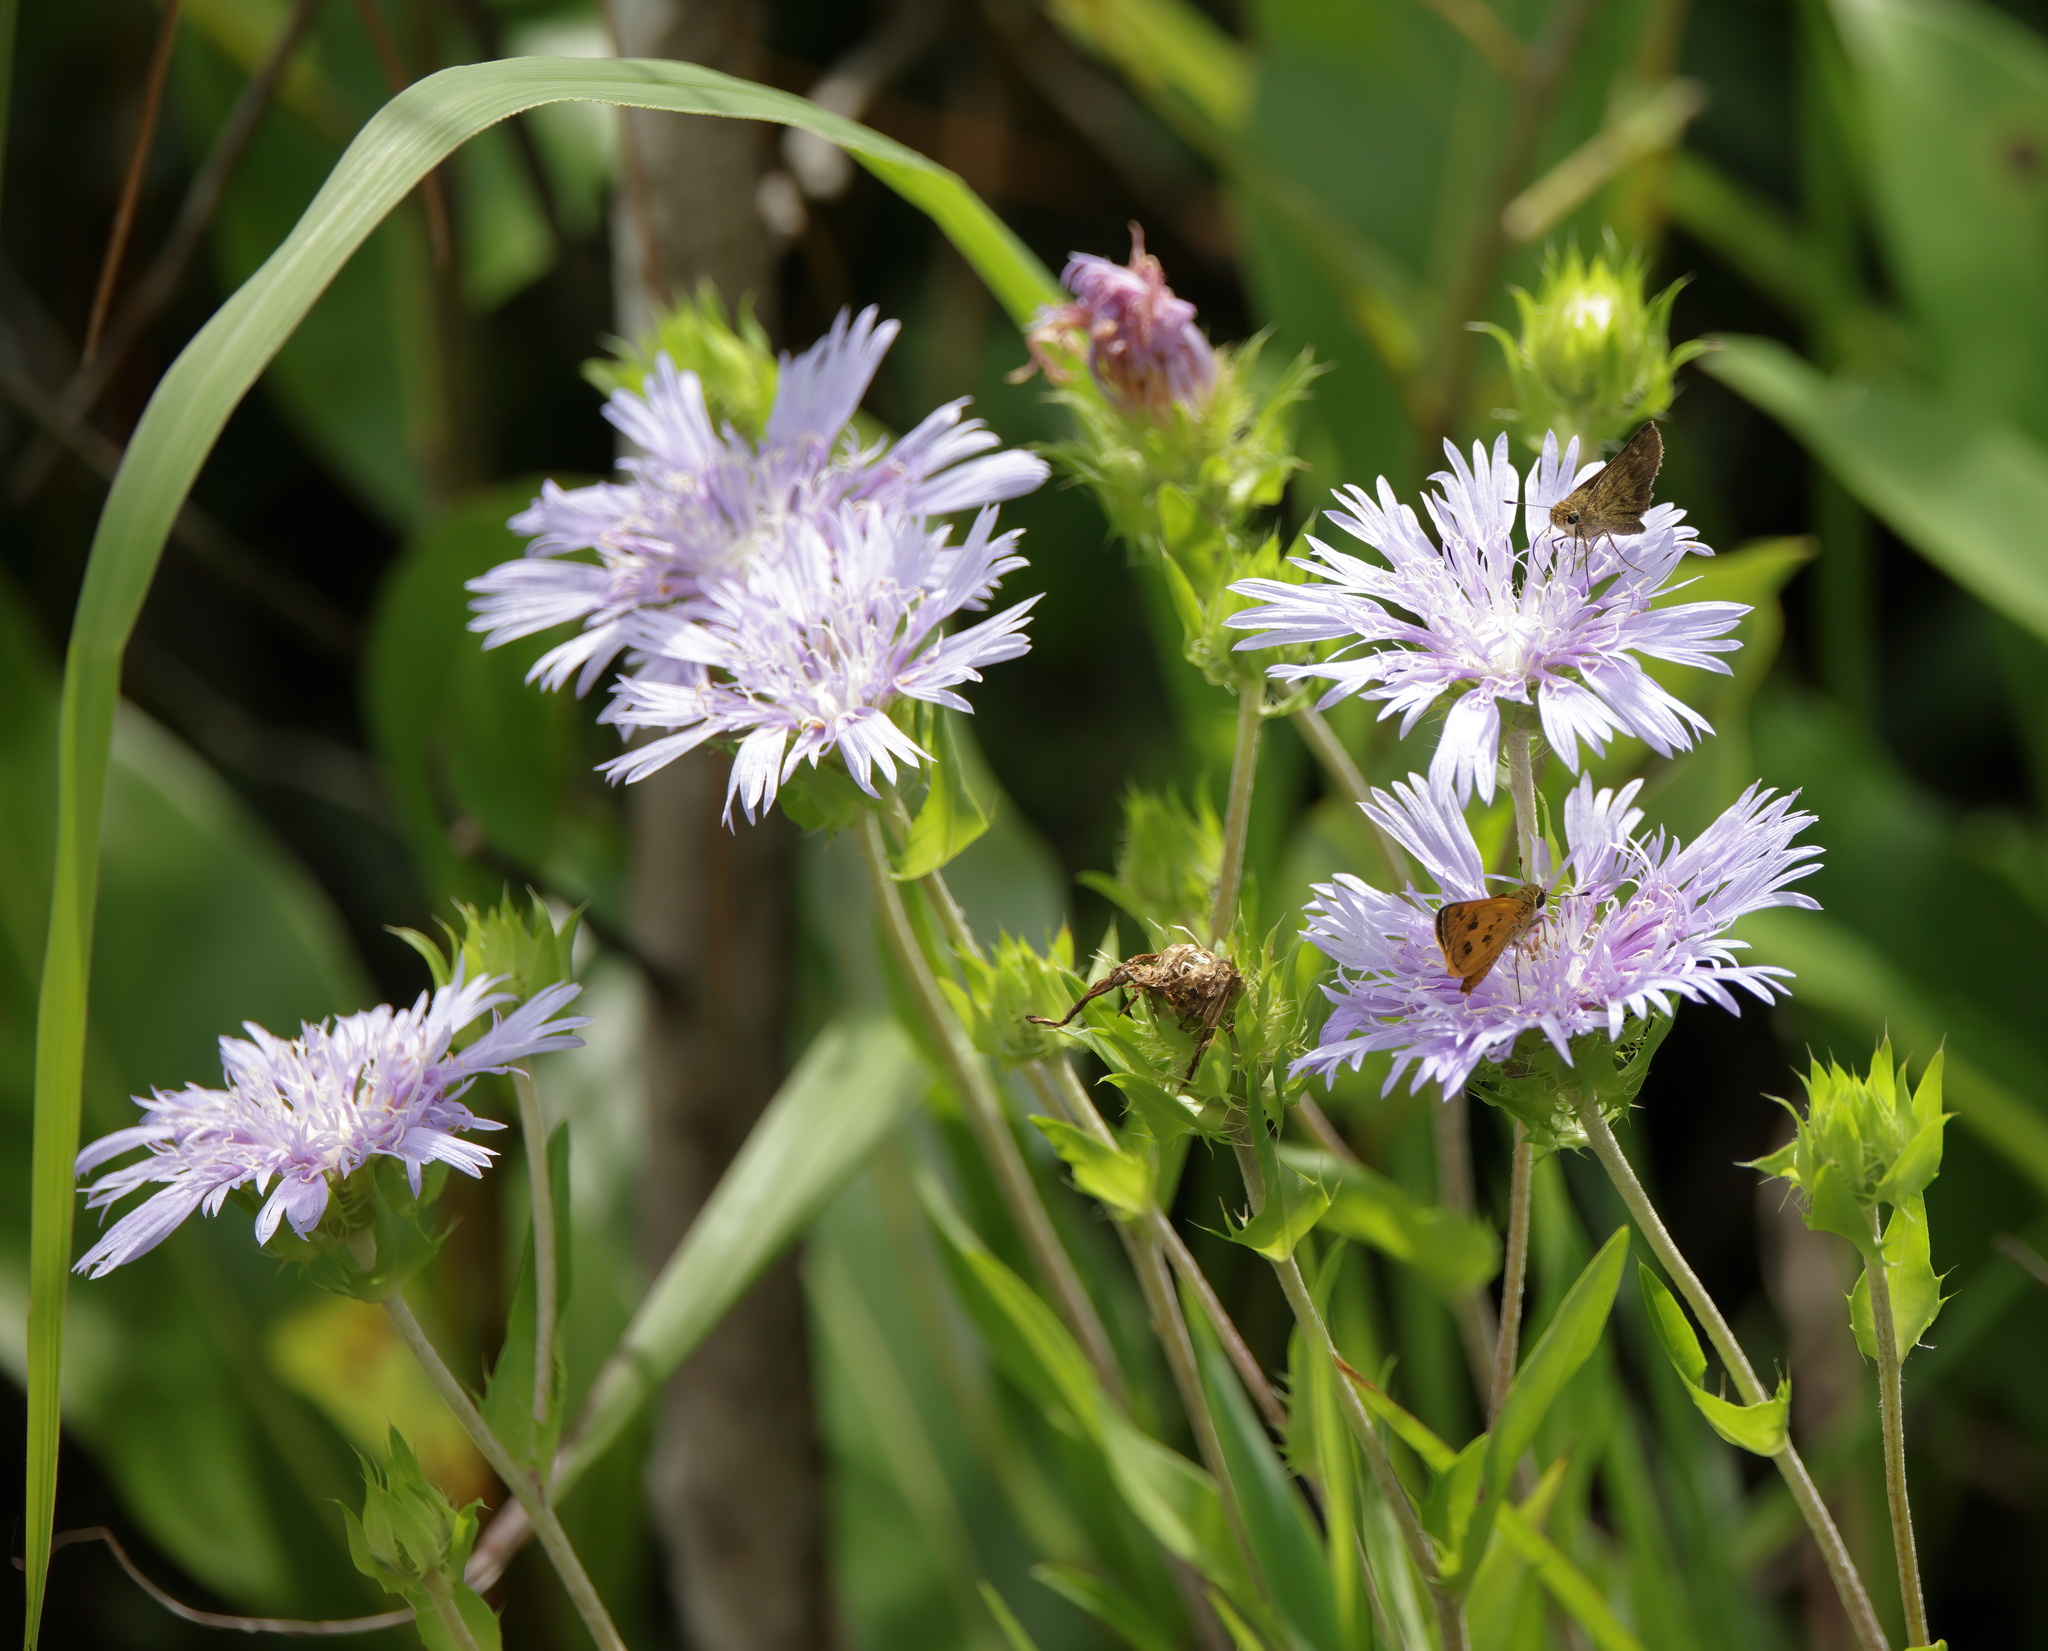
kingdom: Plantae
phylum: Tracheophyta
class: Magnoliopsida
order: Asterales
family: Asteraceae
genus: Stokesia
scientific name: Stokesia laevis
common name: Stokes'-aster
